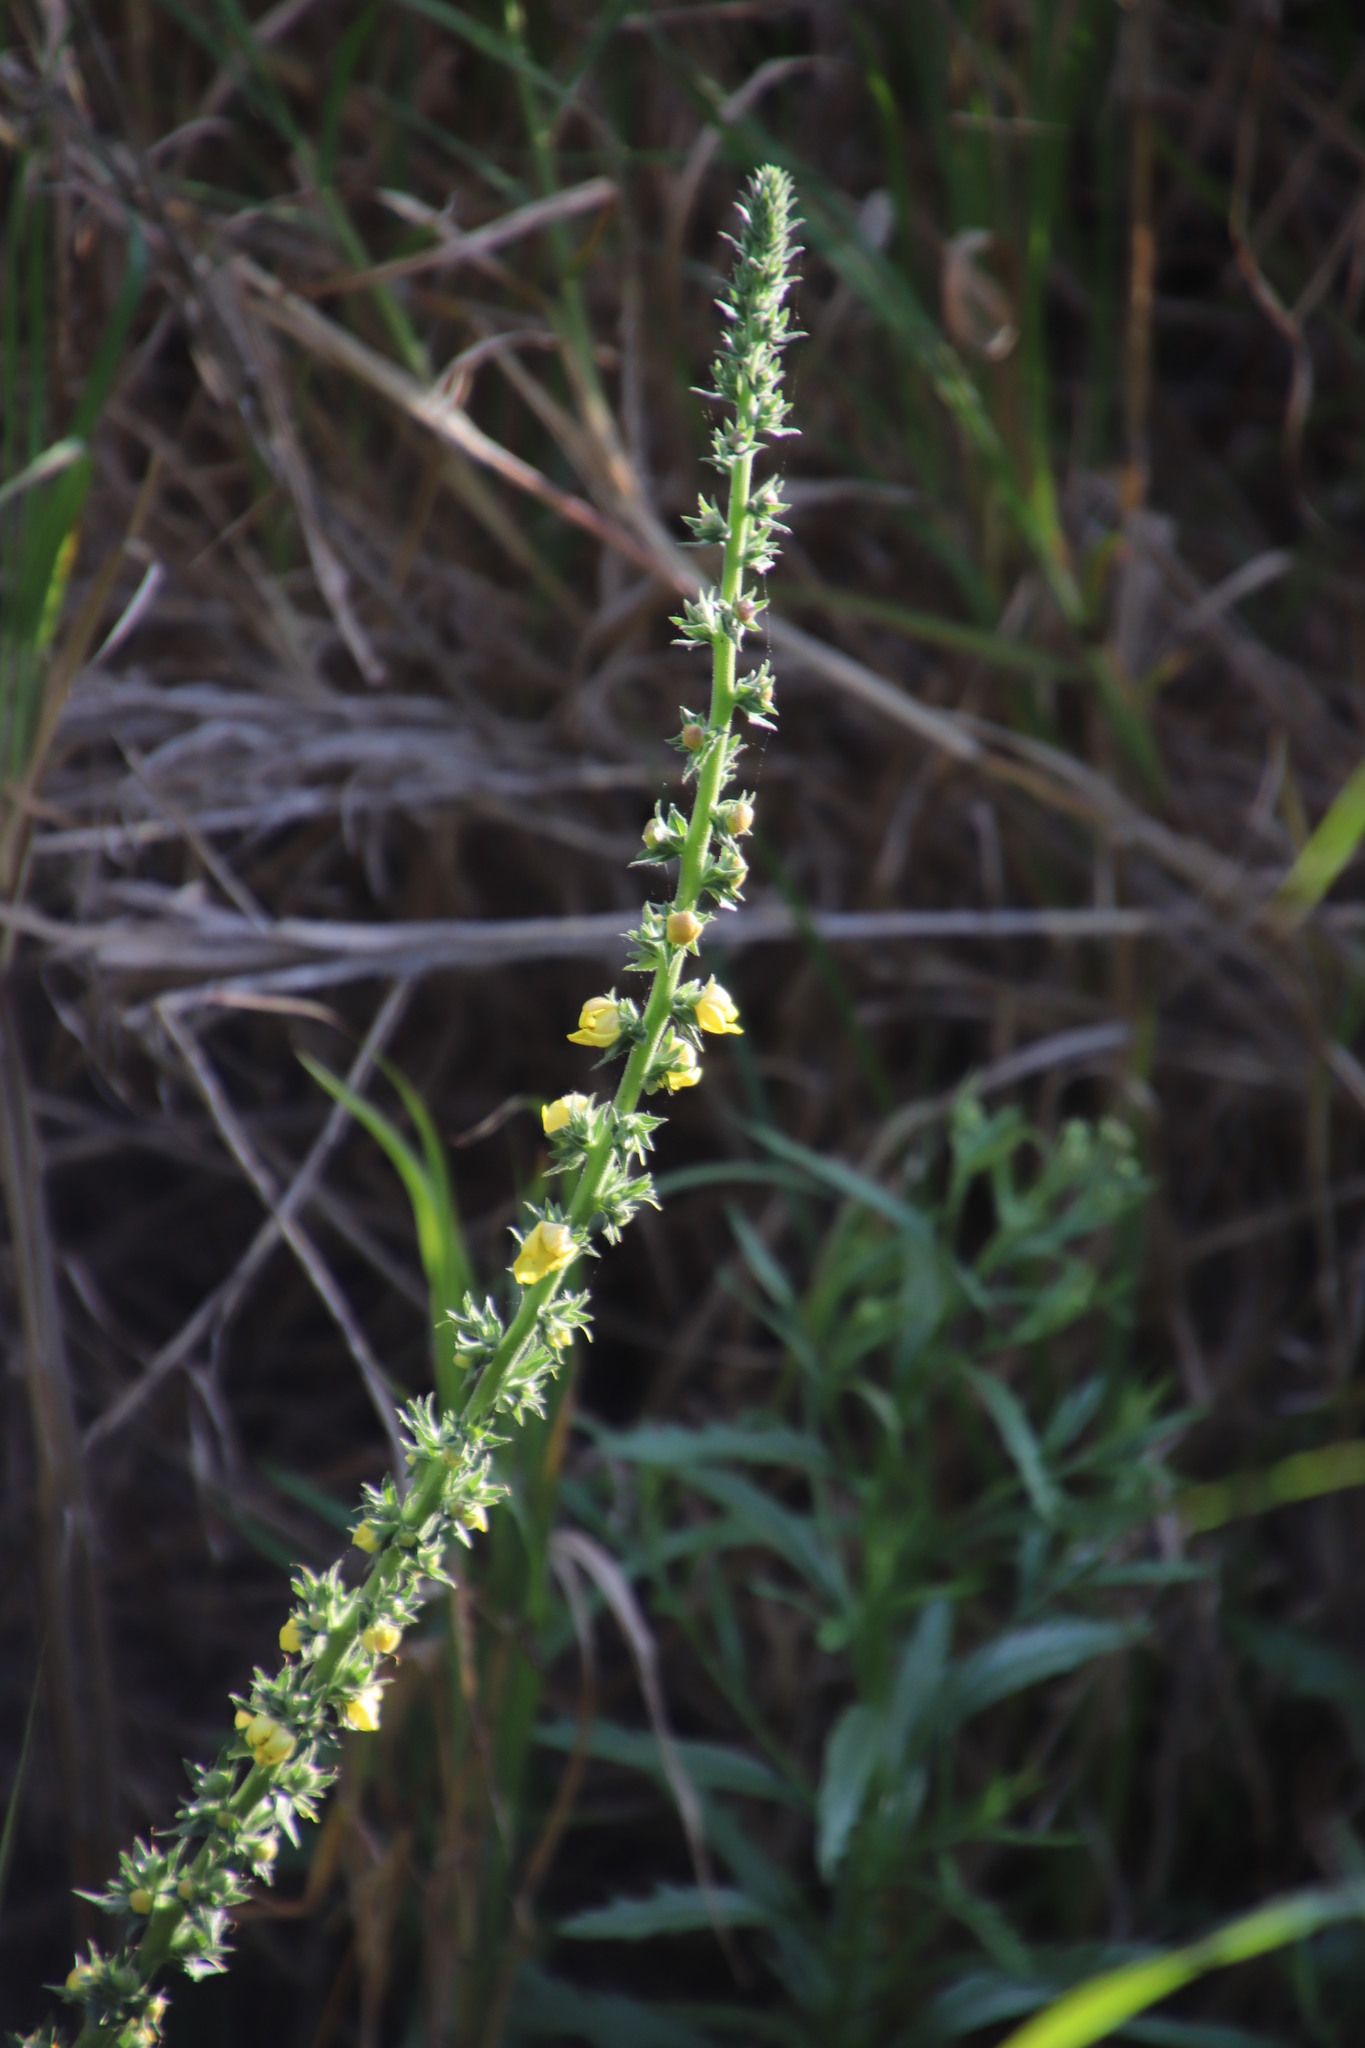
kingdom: Plantae
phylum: Tracheophyta
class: Magnoliopsida
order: Lamiales
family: Scrophulariaceae
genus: Verbascum
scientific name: Verbascum virgatum
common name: Twiggy mullein
